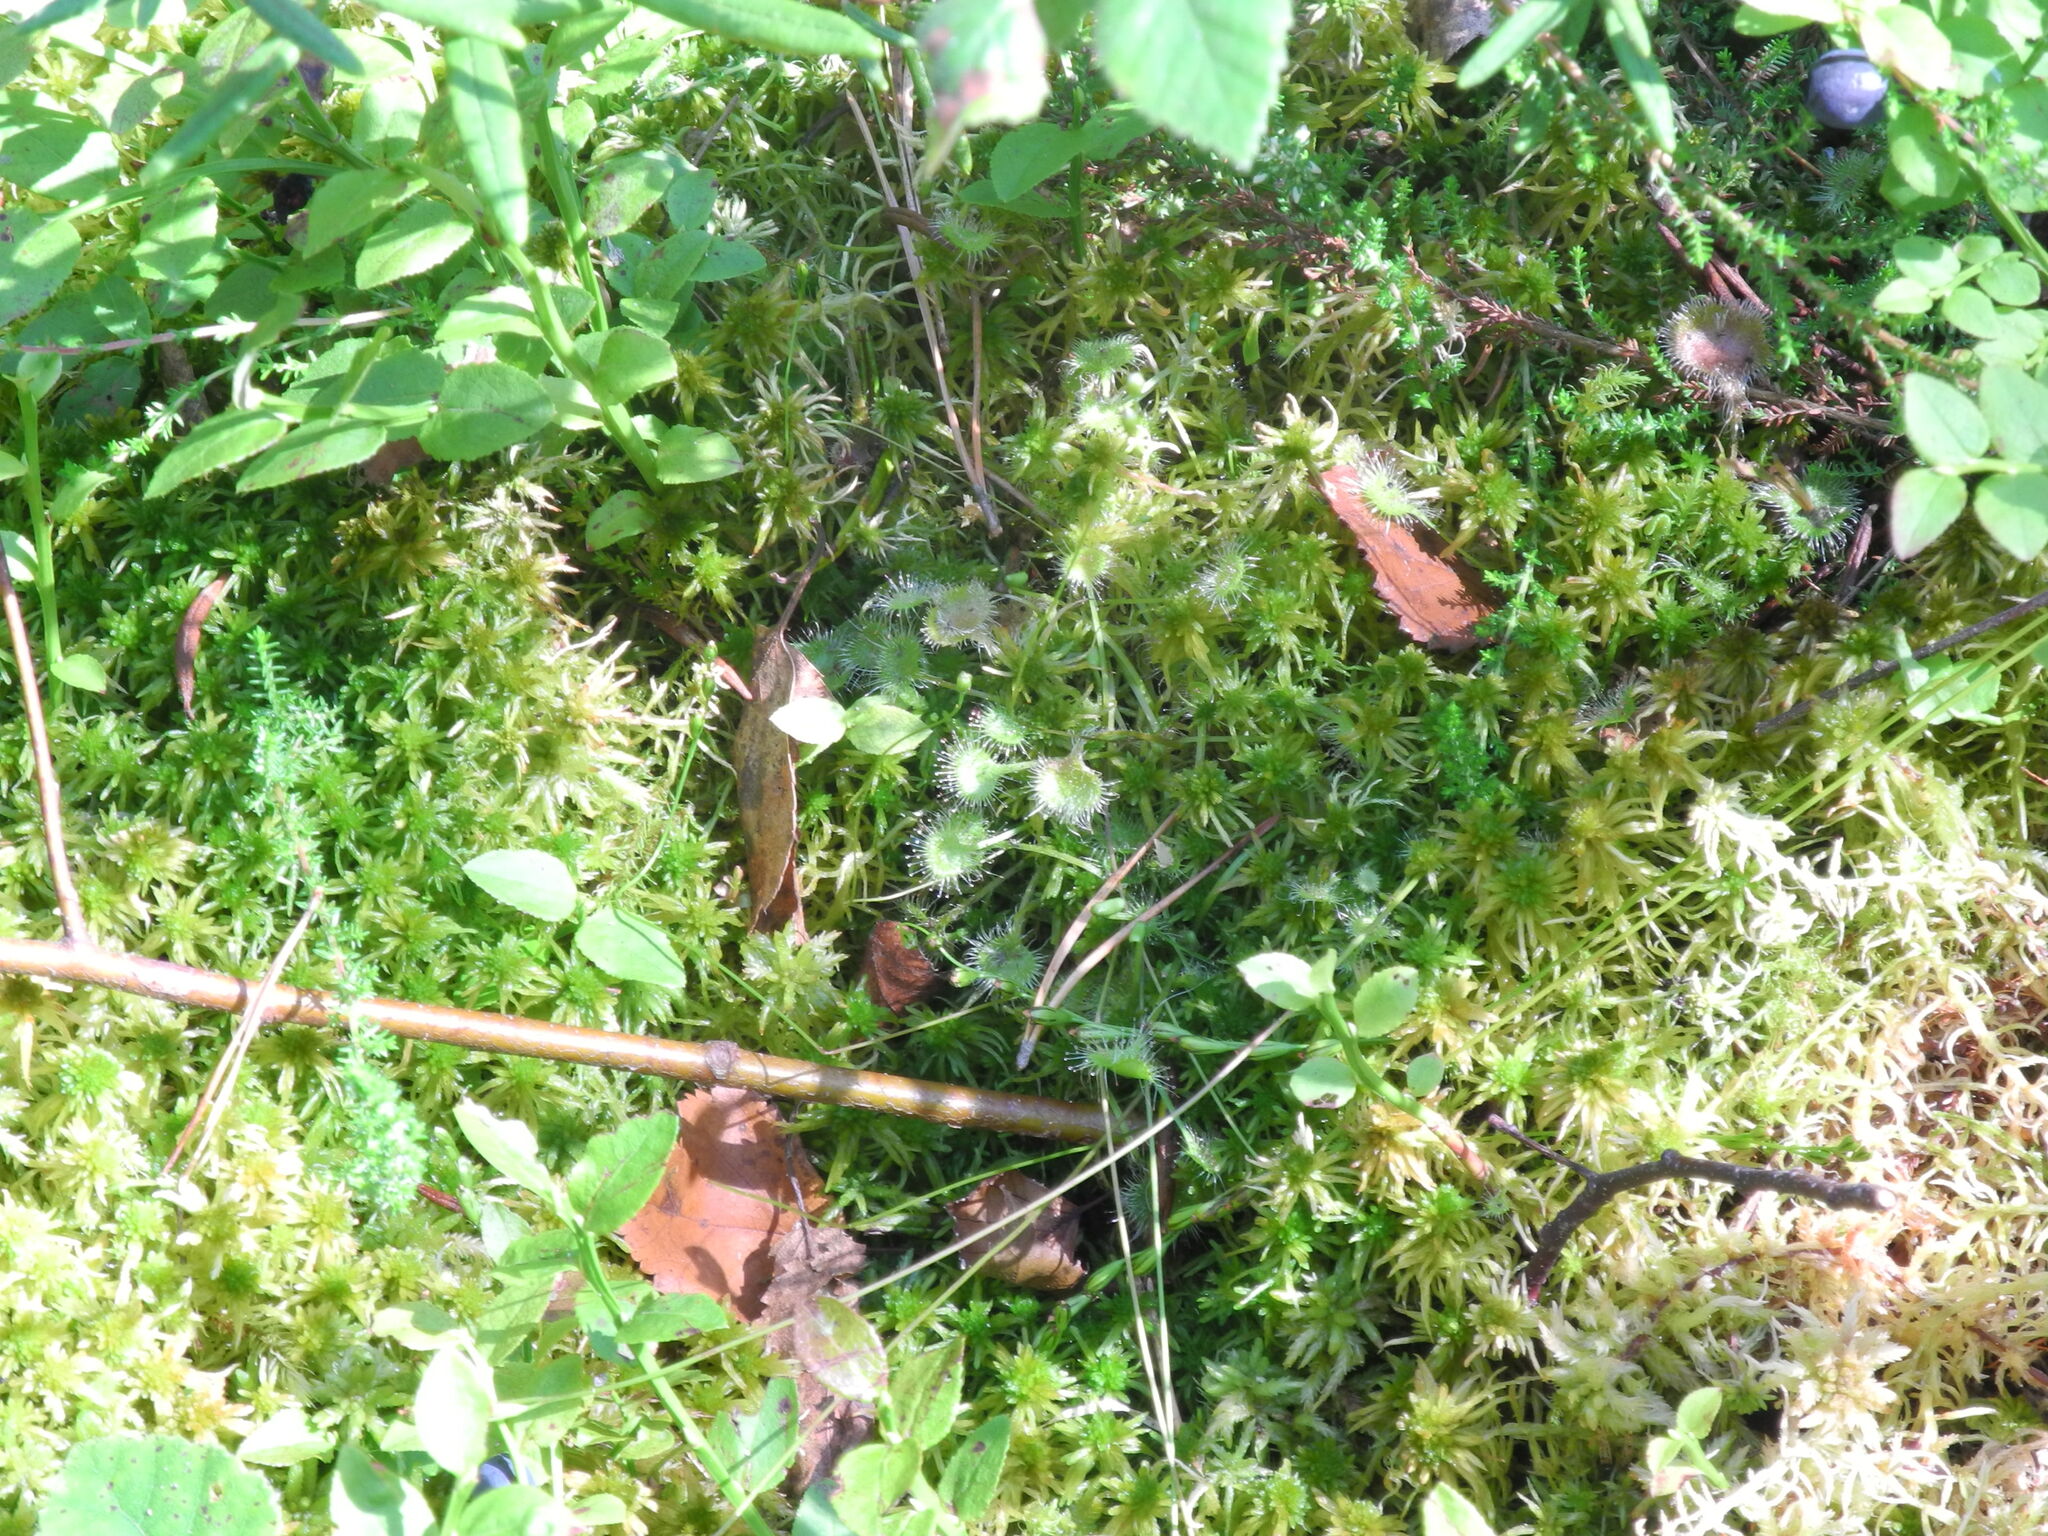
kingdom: Plantae
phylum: Tracheophyta
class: Magnoliopsida
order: Caryophyllales
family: Droseraceae
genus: Drosera
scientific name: Drosera rotundifolia
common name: Round-leaved sundew
